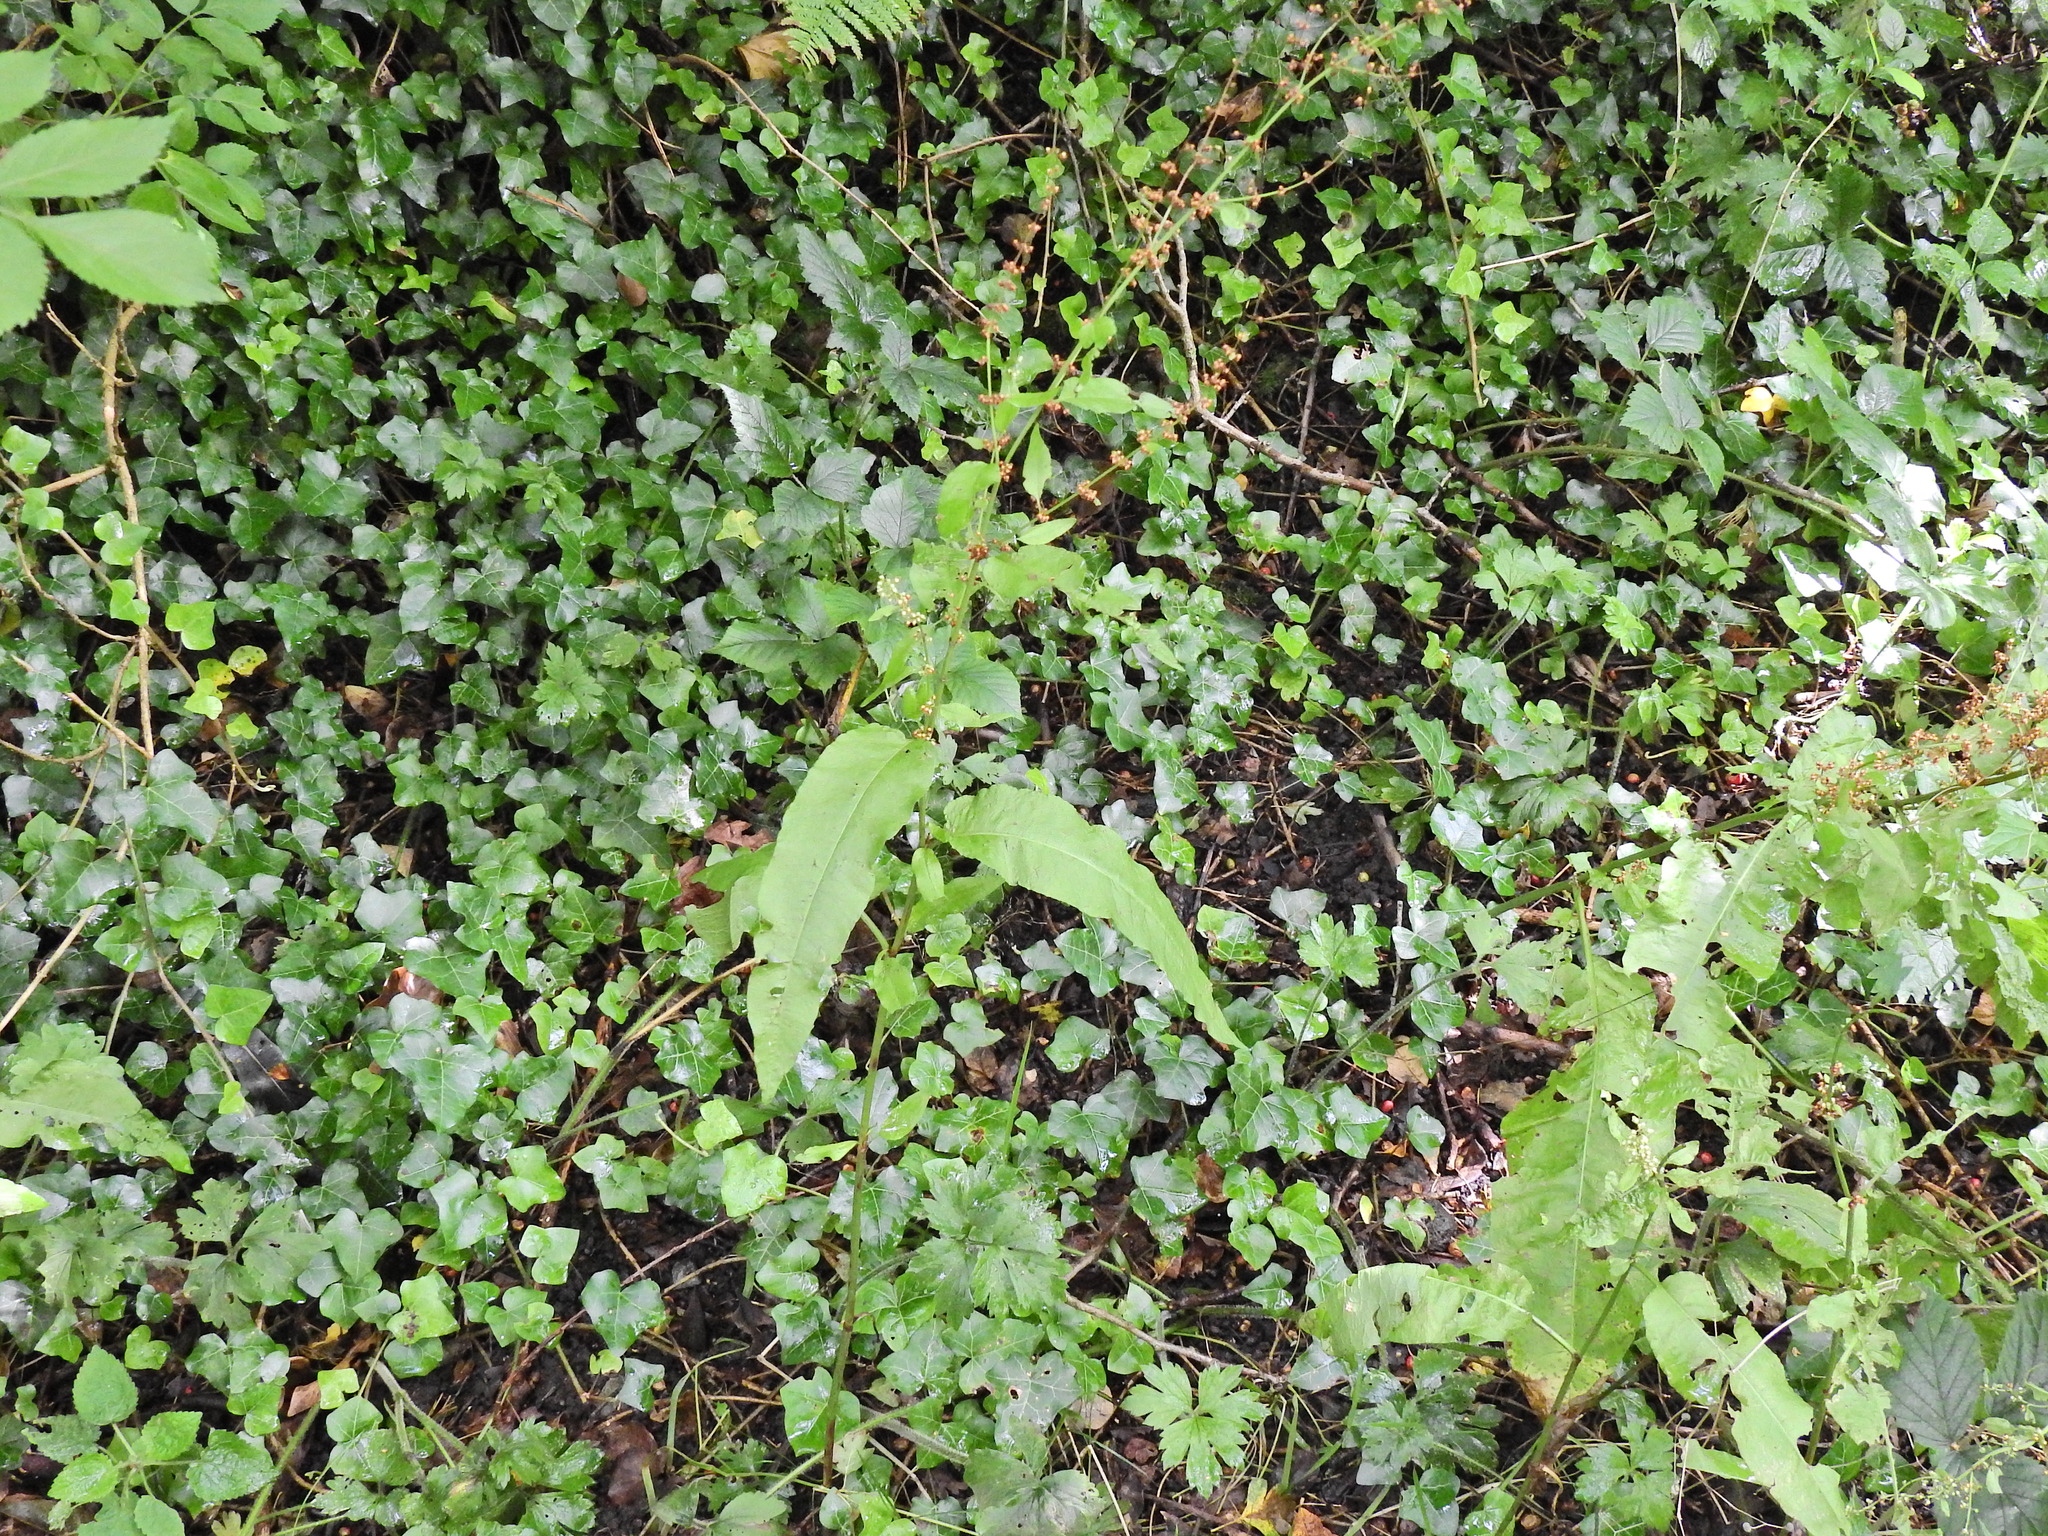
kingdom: Plantae
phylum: Tracheophyta
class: Magnoliopsida
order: Caryophyllales
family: Polygonaceae
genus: Rumex
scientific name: Rumex sanguineus
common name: Wood dock
